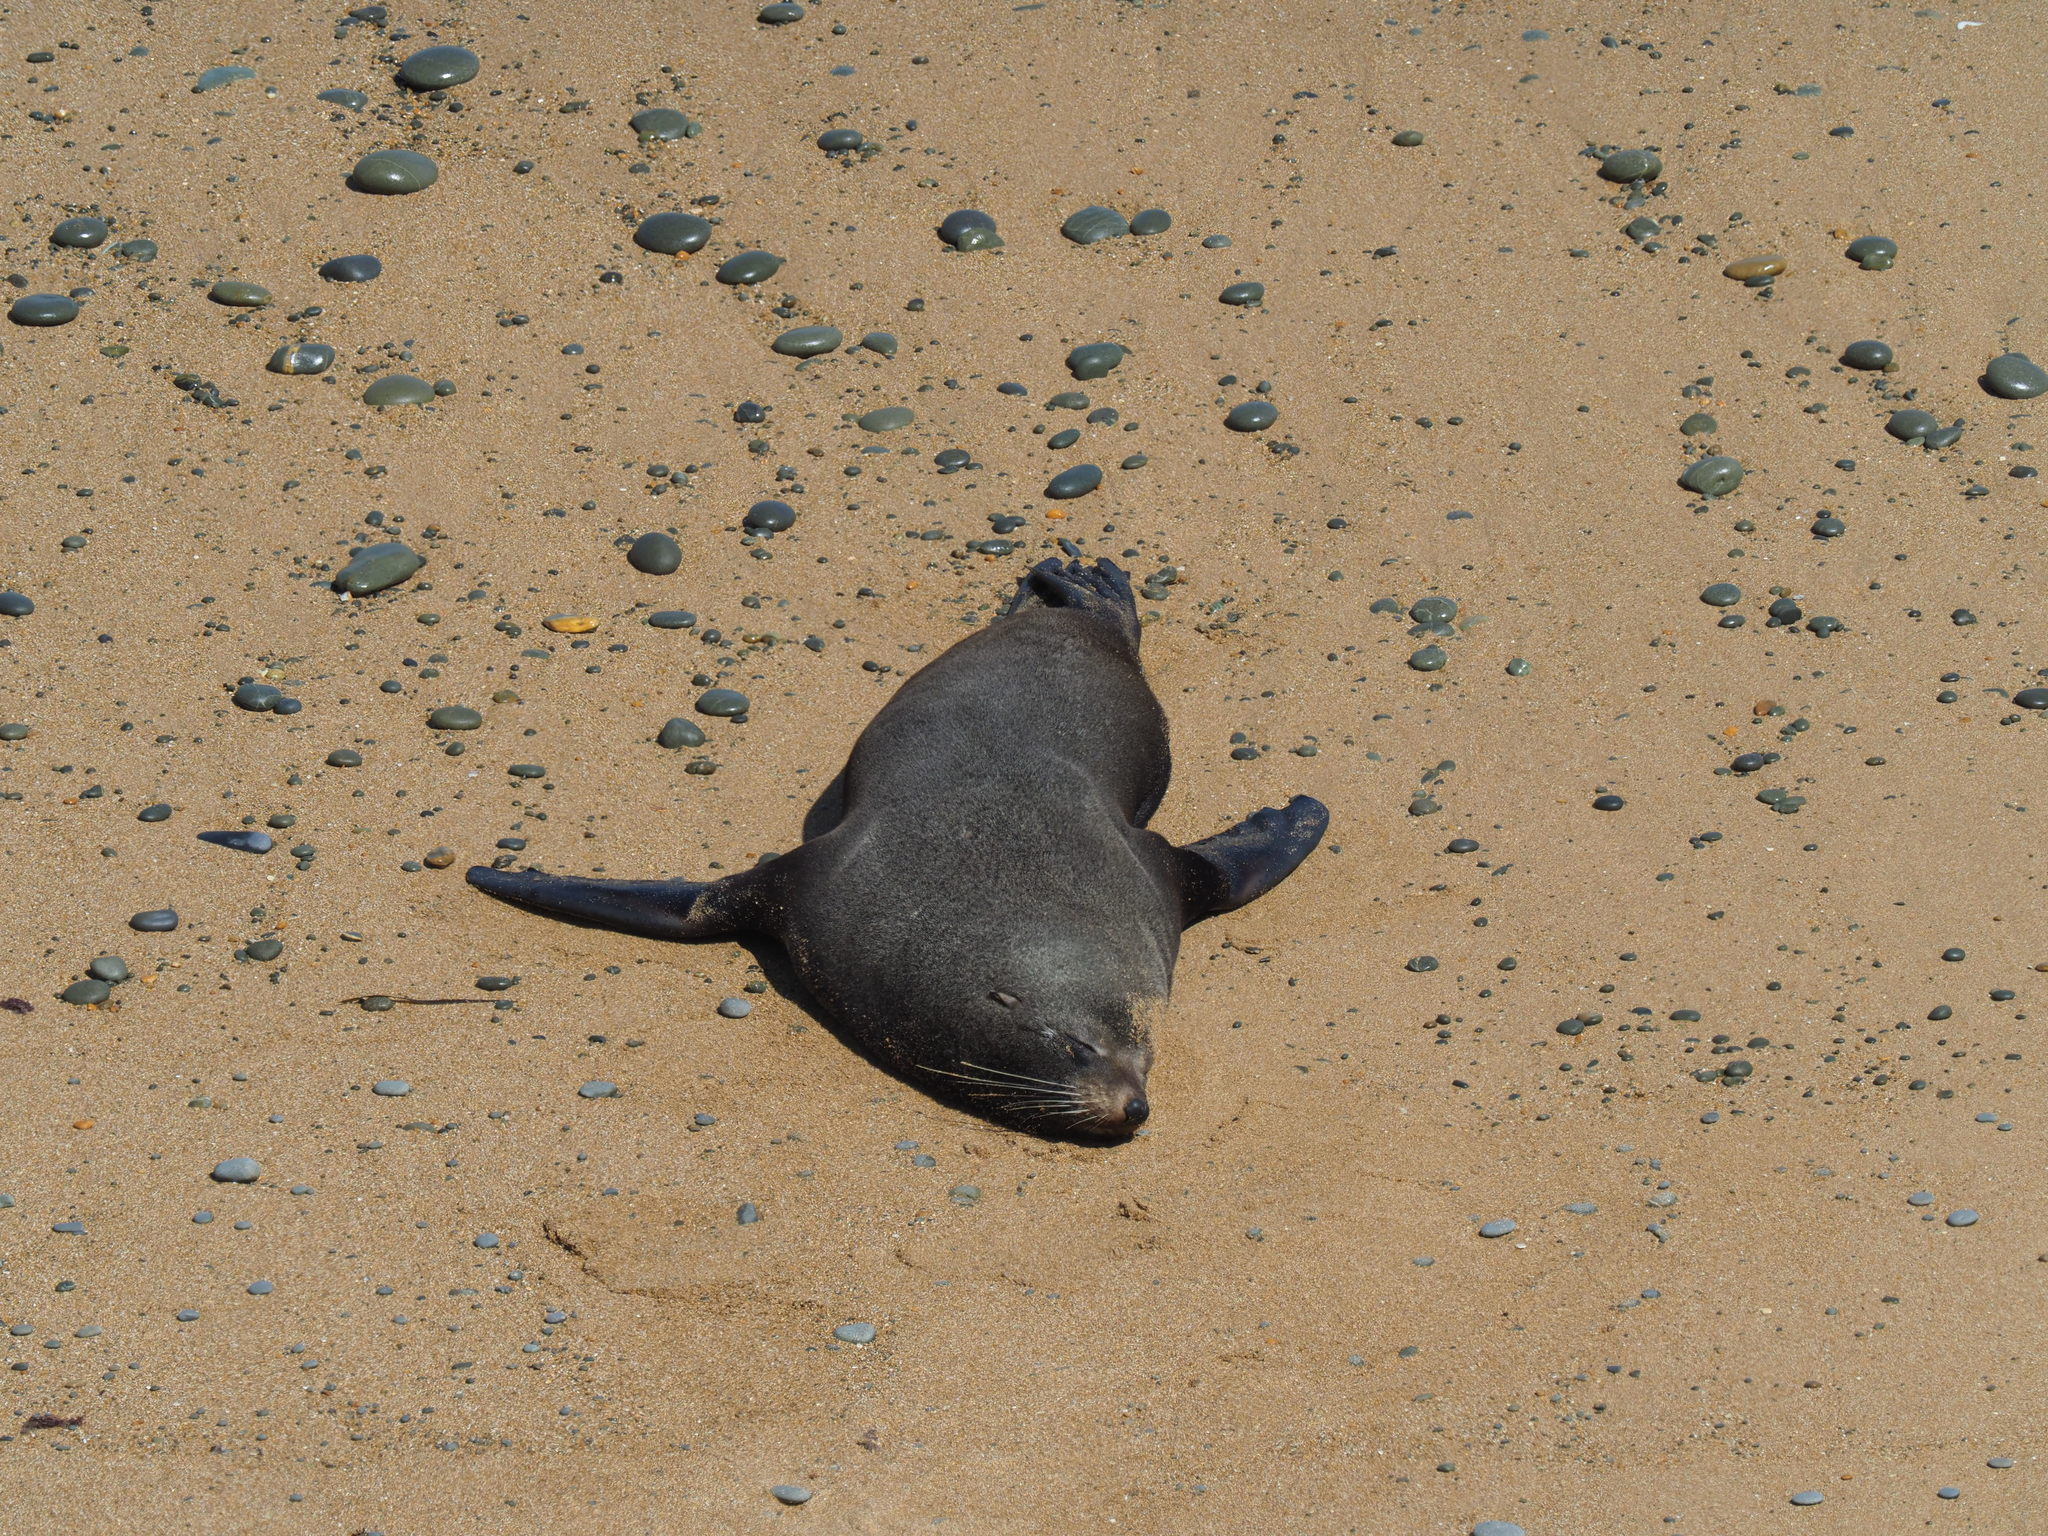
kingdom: Animalia
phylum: Chordata
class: Mammalia
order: Carnivora
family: Otariidae
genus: Arctocephalus
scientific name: Arctocephalus forsteri
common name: New zealand fur seal
